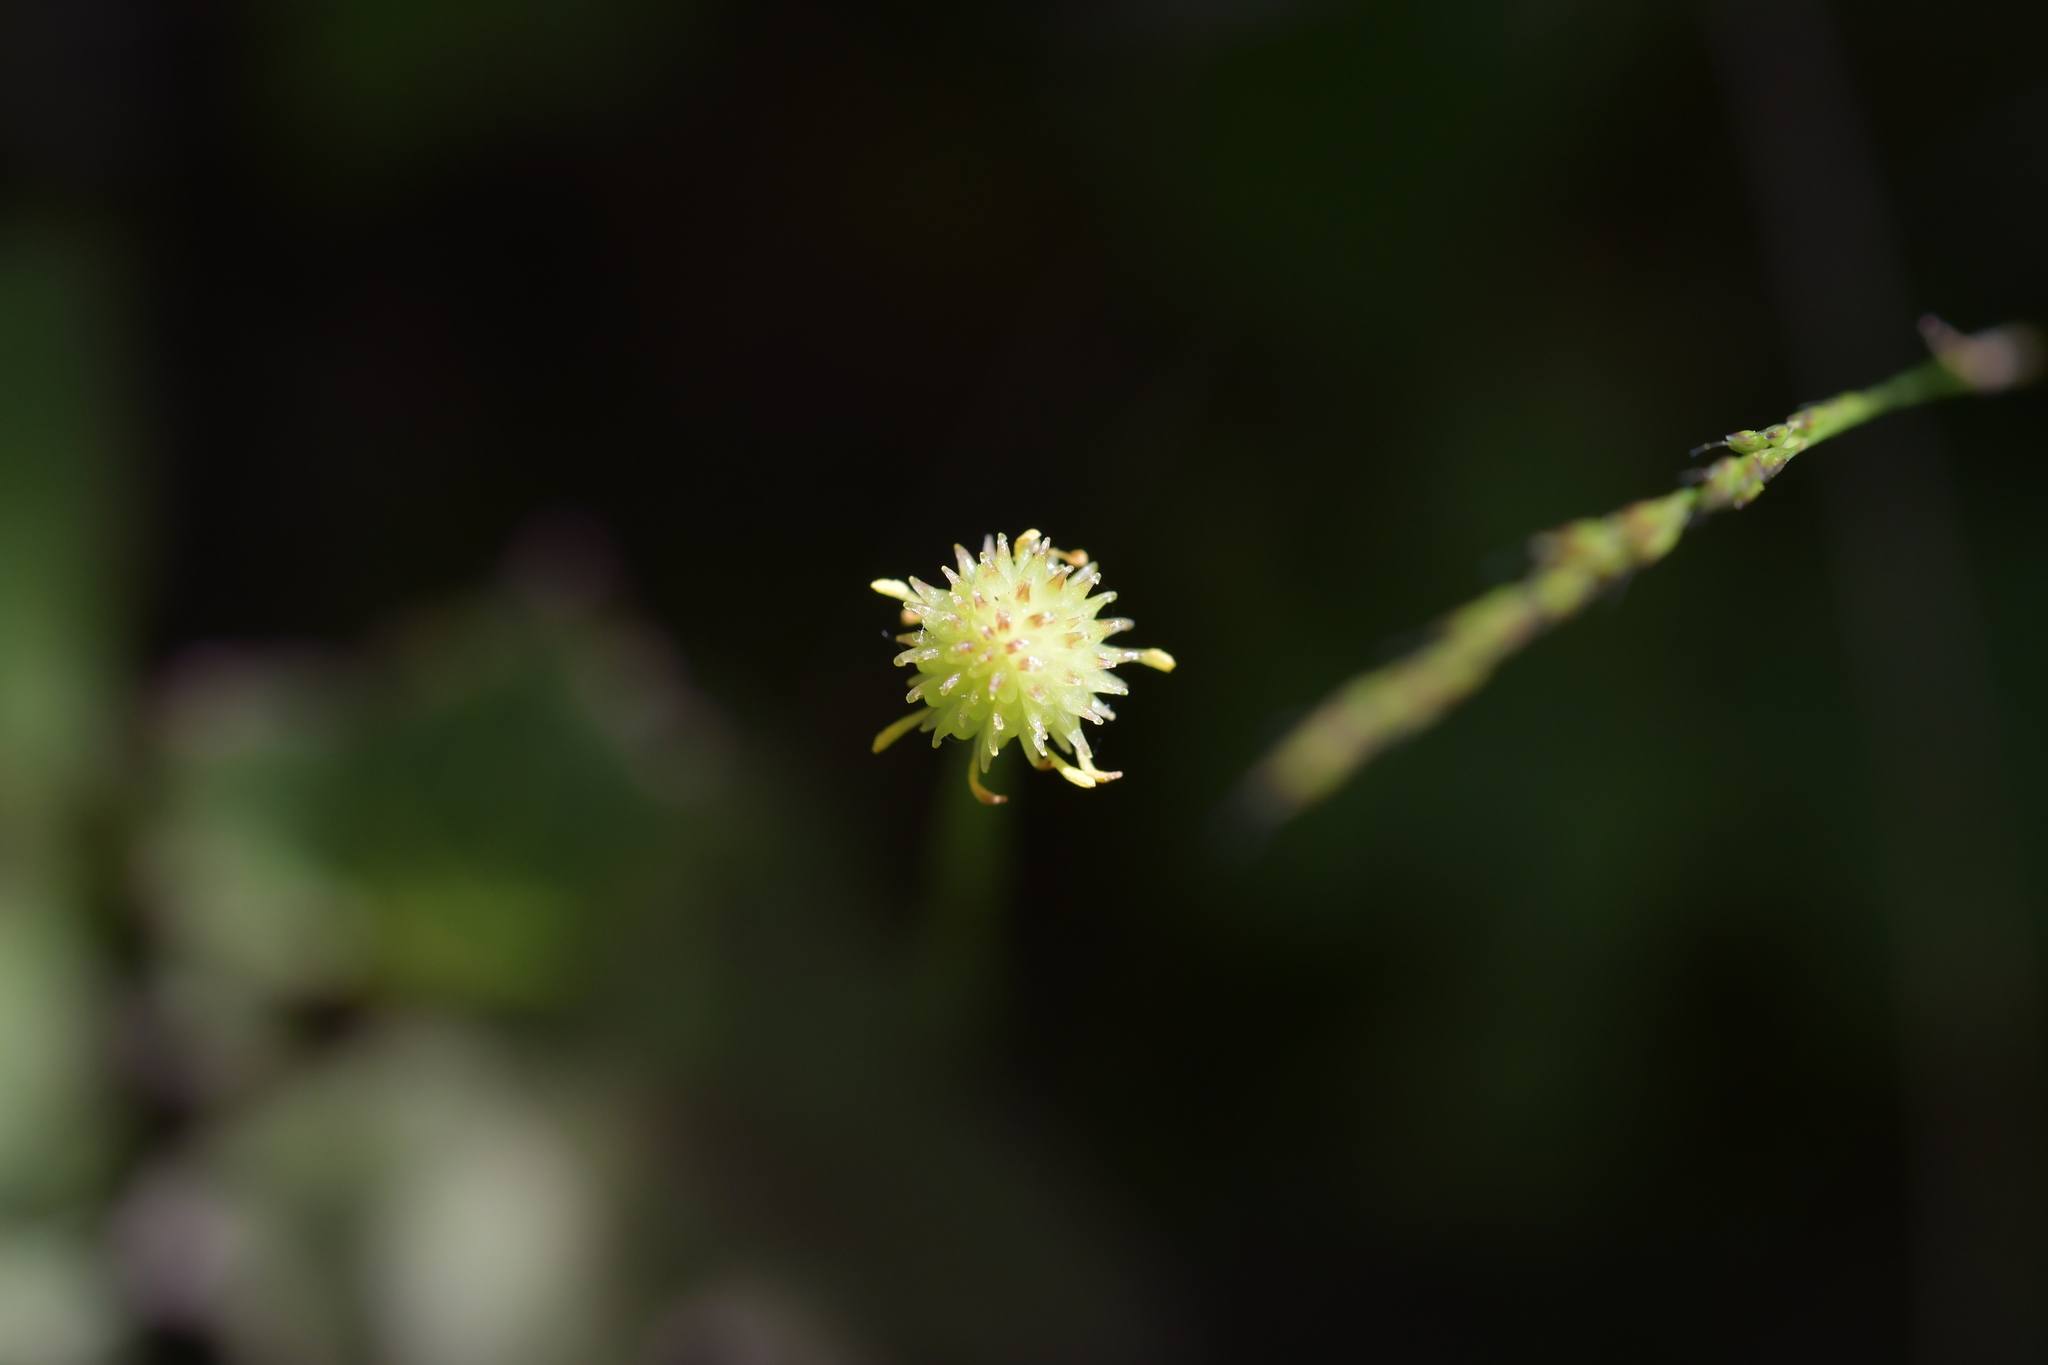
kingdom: Plantae
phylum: Tracheophyta
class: Magnoliopsida
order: Ranunculales
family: Ranunculaceae
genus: Ranunculus
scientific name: Ranunculus reflexus
